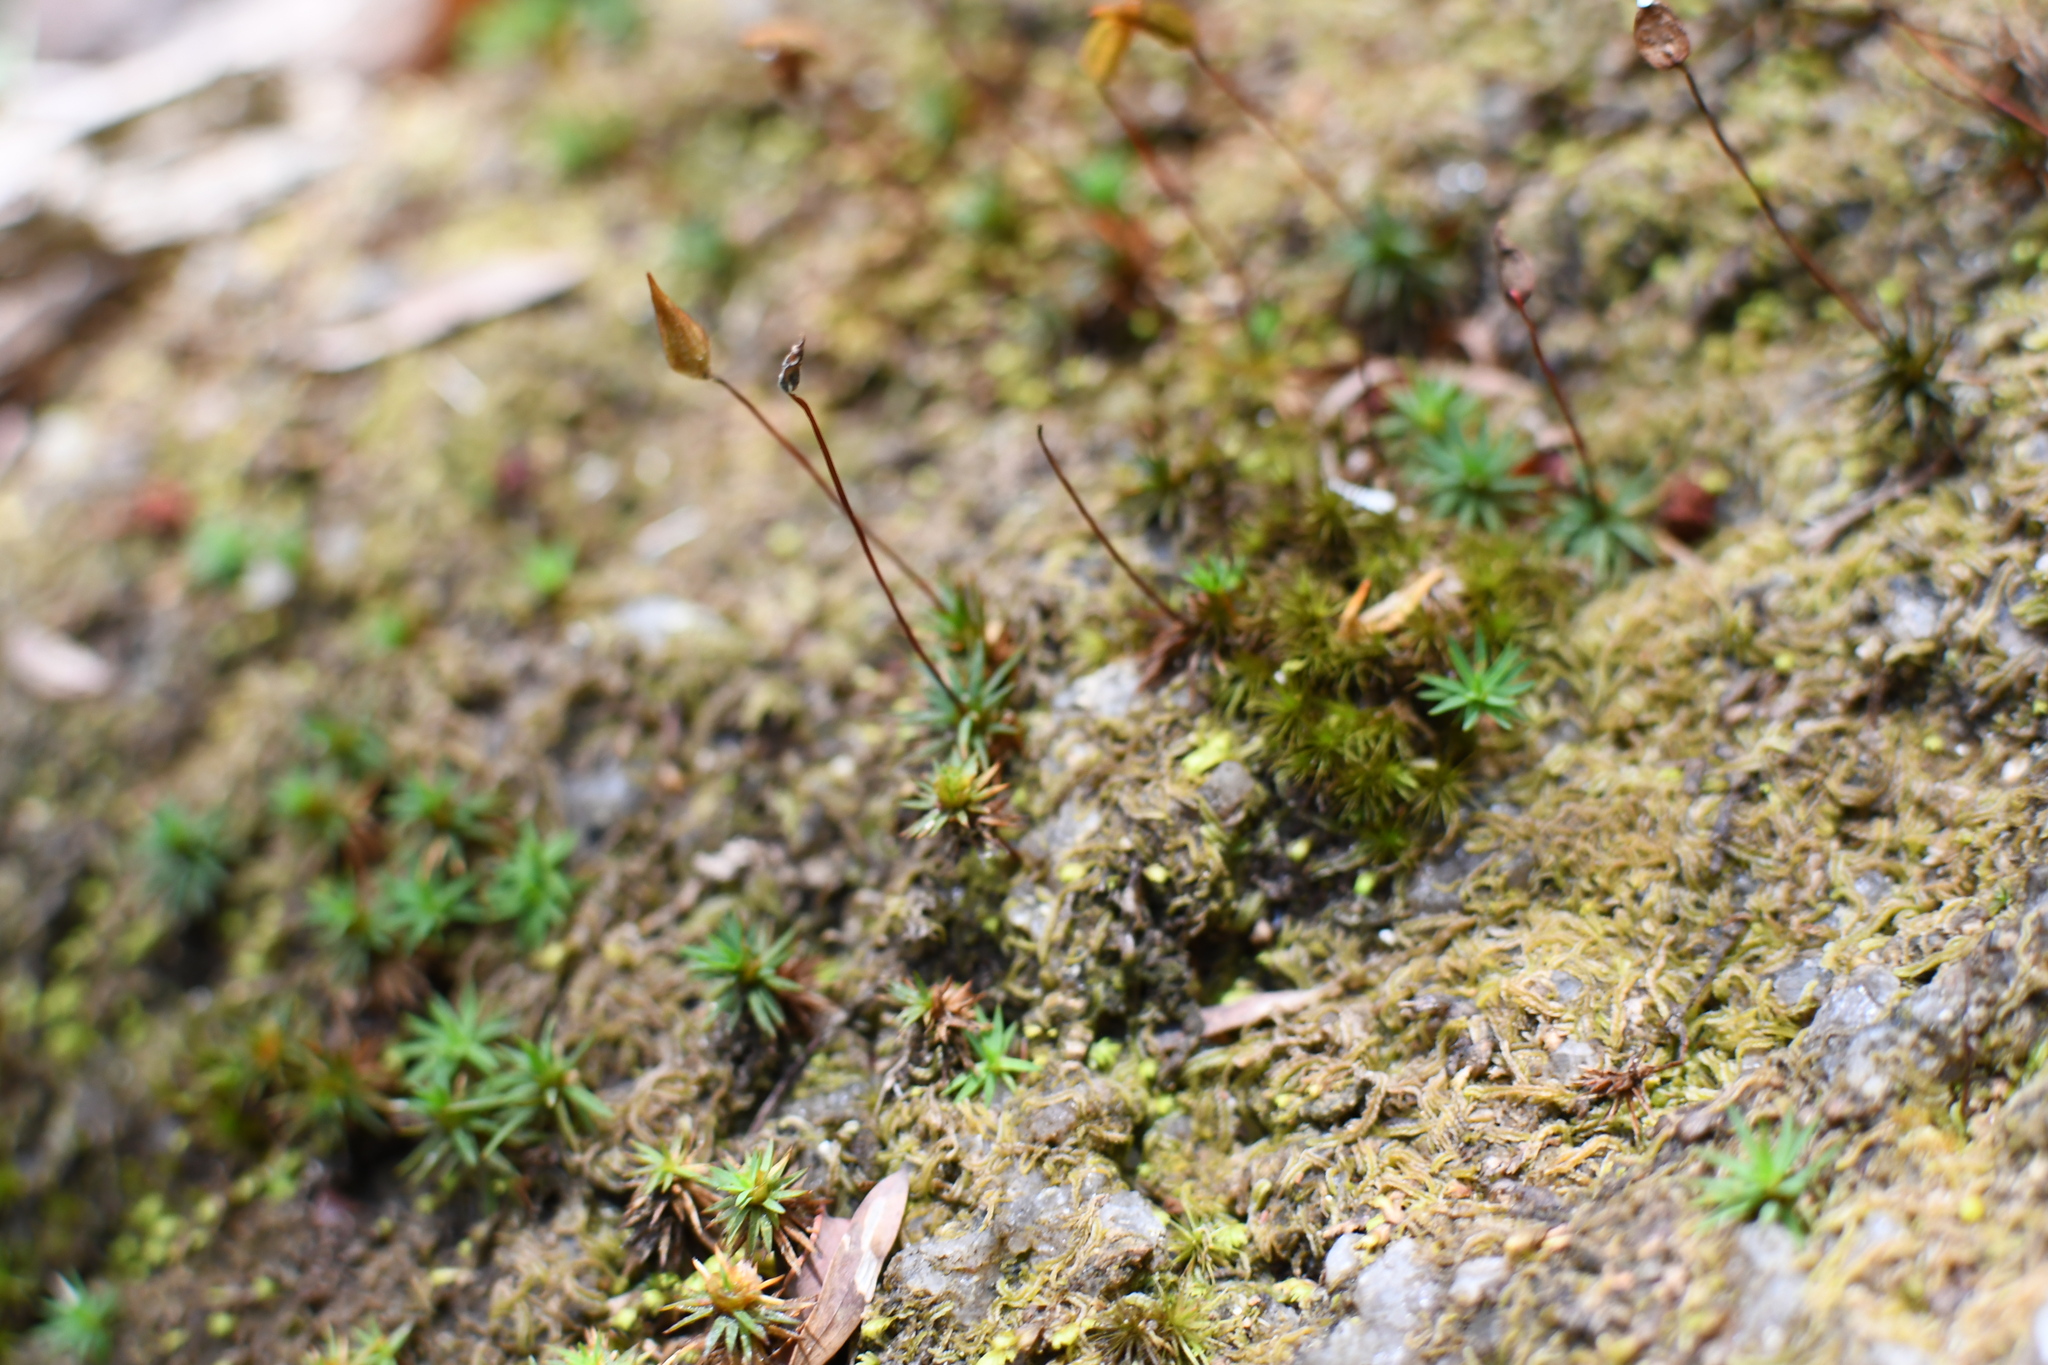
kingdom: Plantae
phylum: Bryophyta
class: Polytrichopsida
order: Polytrichales
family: Polytrichaceae
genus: Dawsonia
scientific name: Dawsonia longiseta
